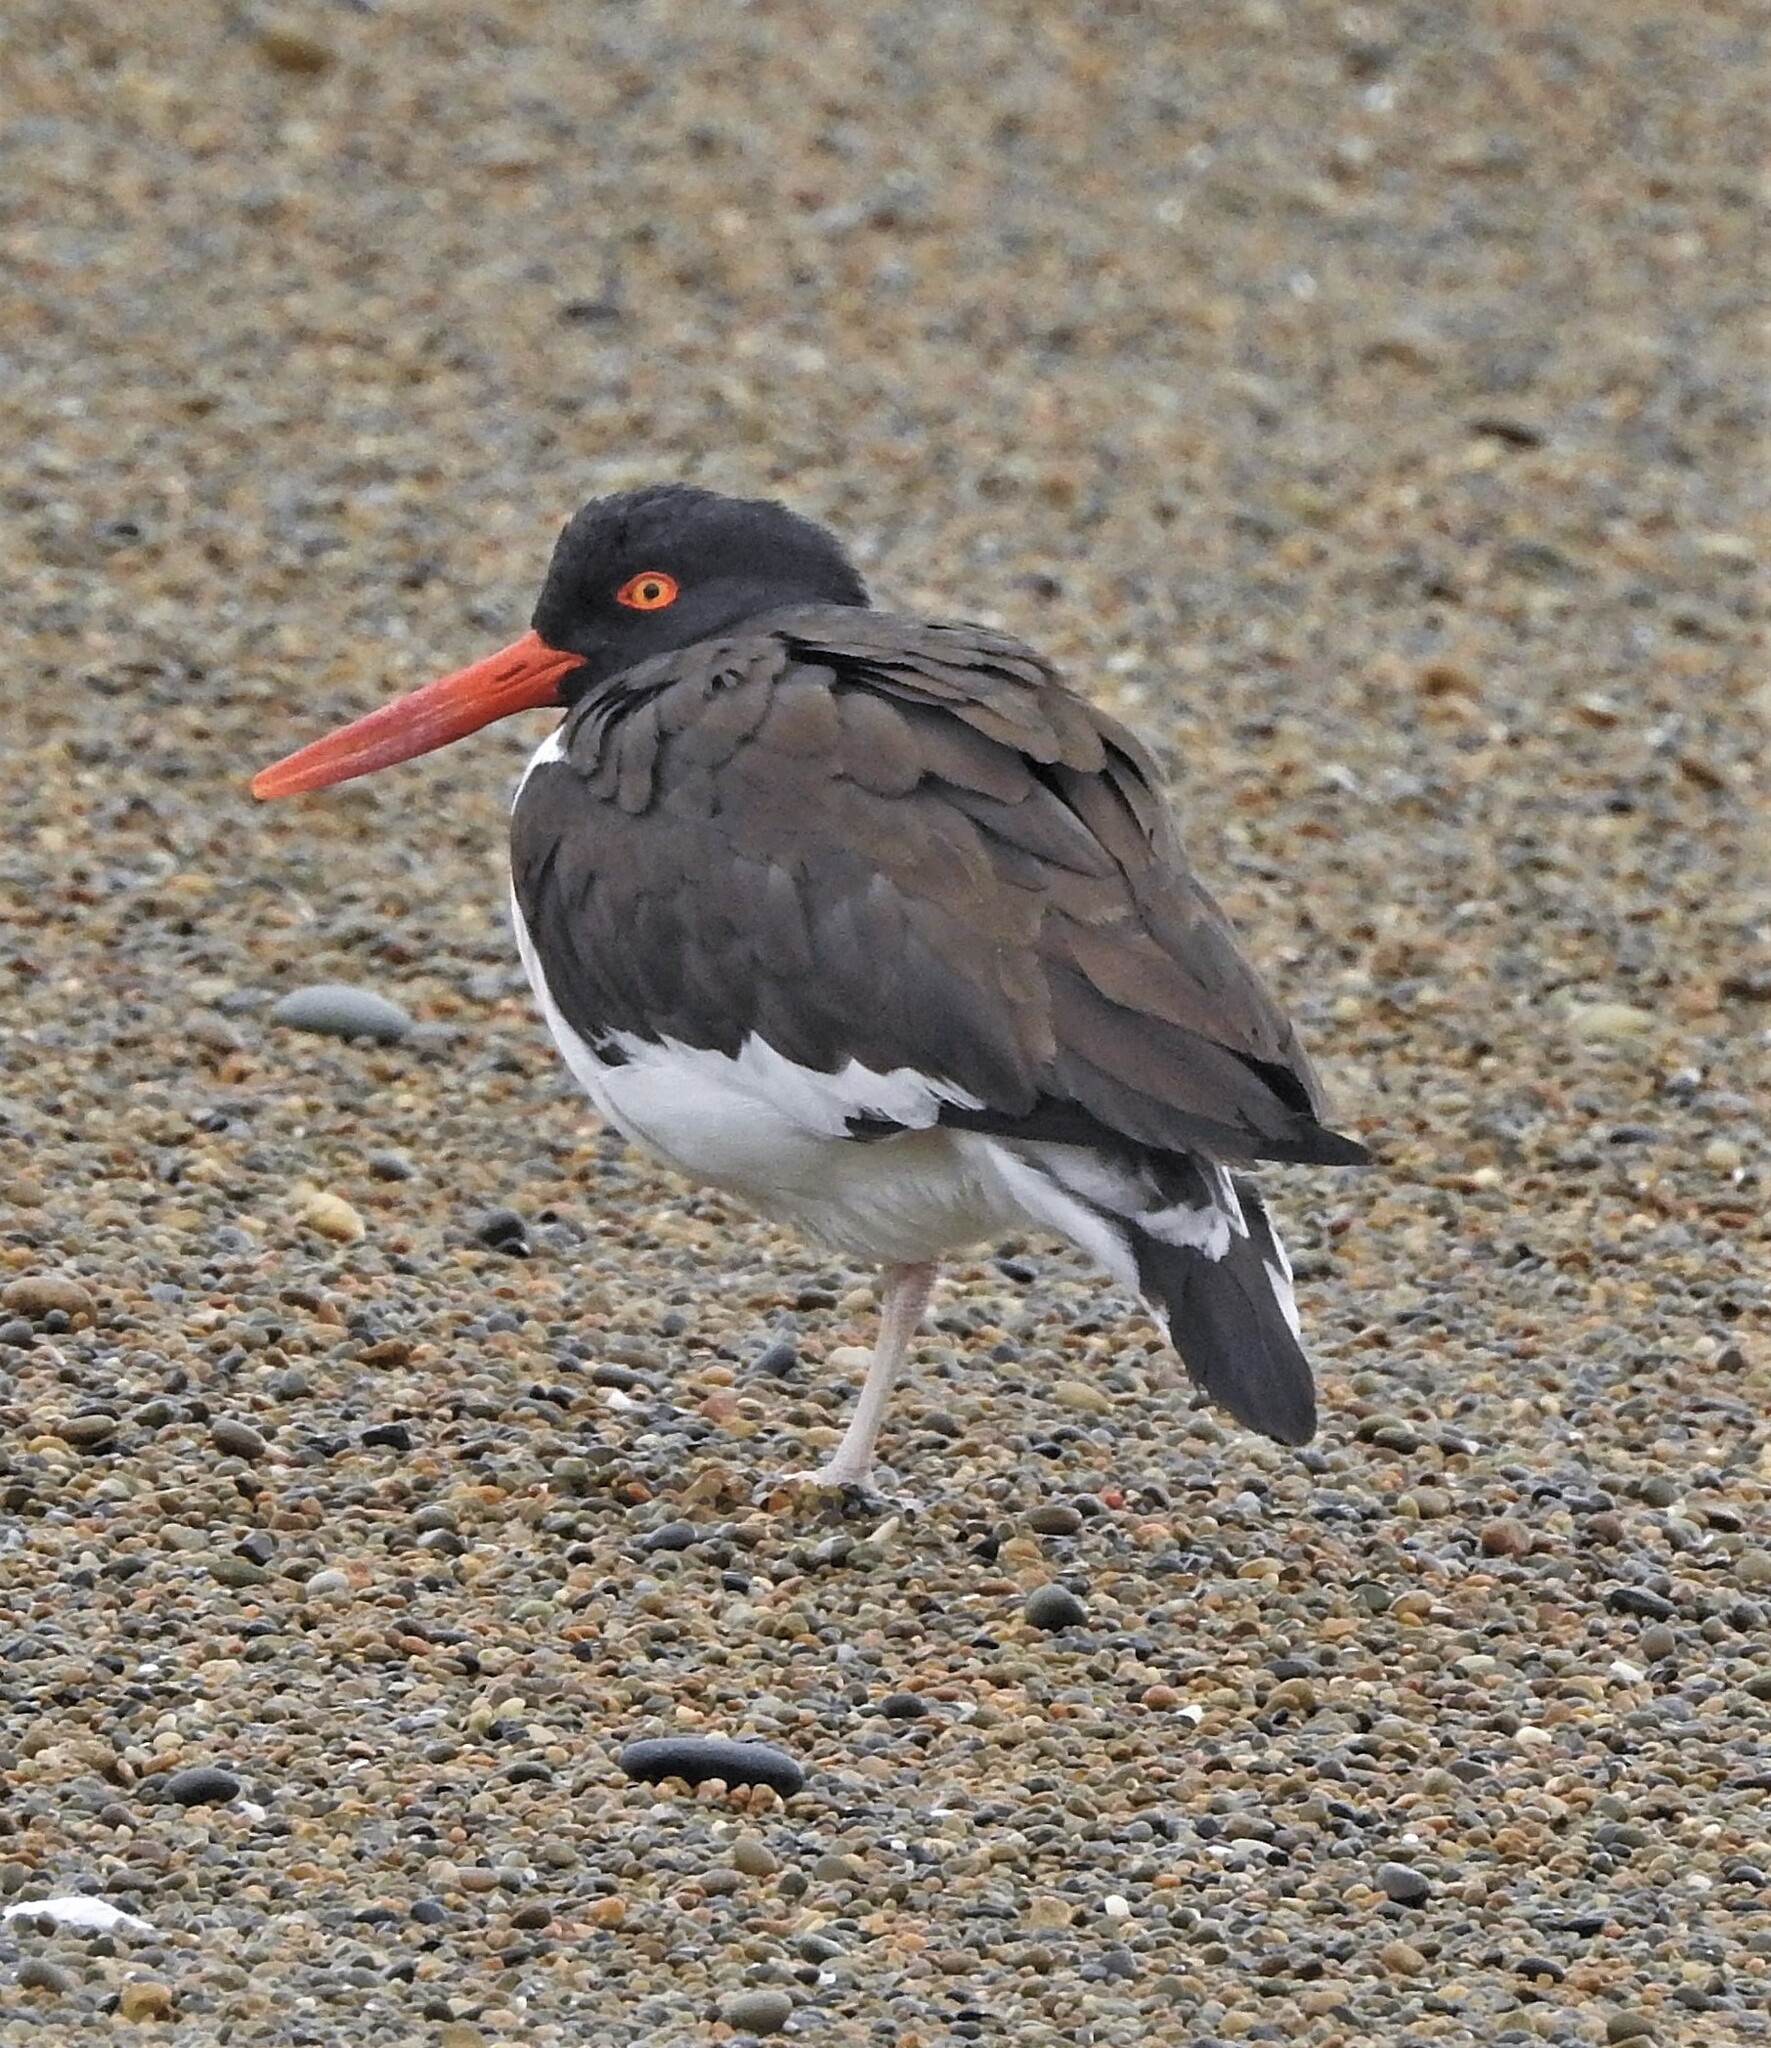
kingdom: Animalia
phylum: Chordata
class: Aves
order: Charadriiformes
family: Haematopodidae
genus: Haematopus
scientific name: Haematopus palliatus
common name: American oystercatcher
